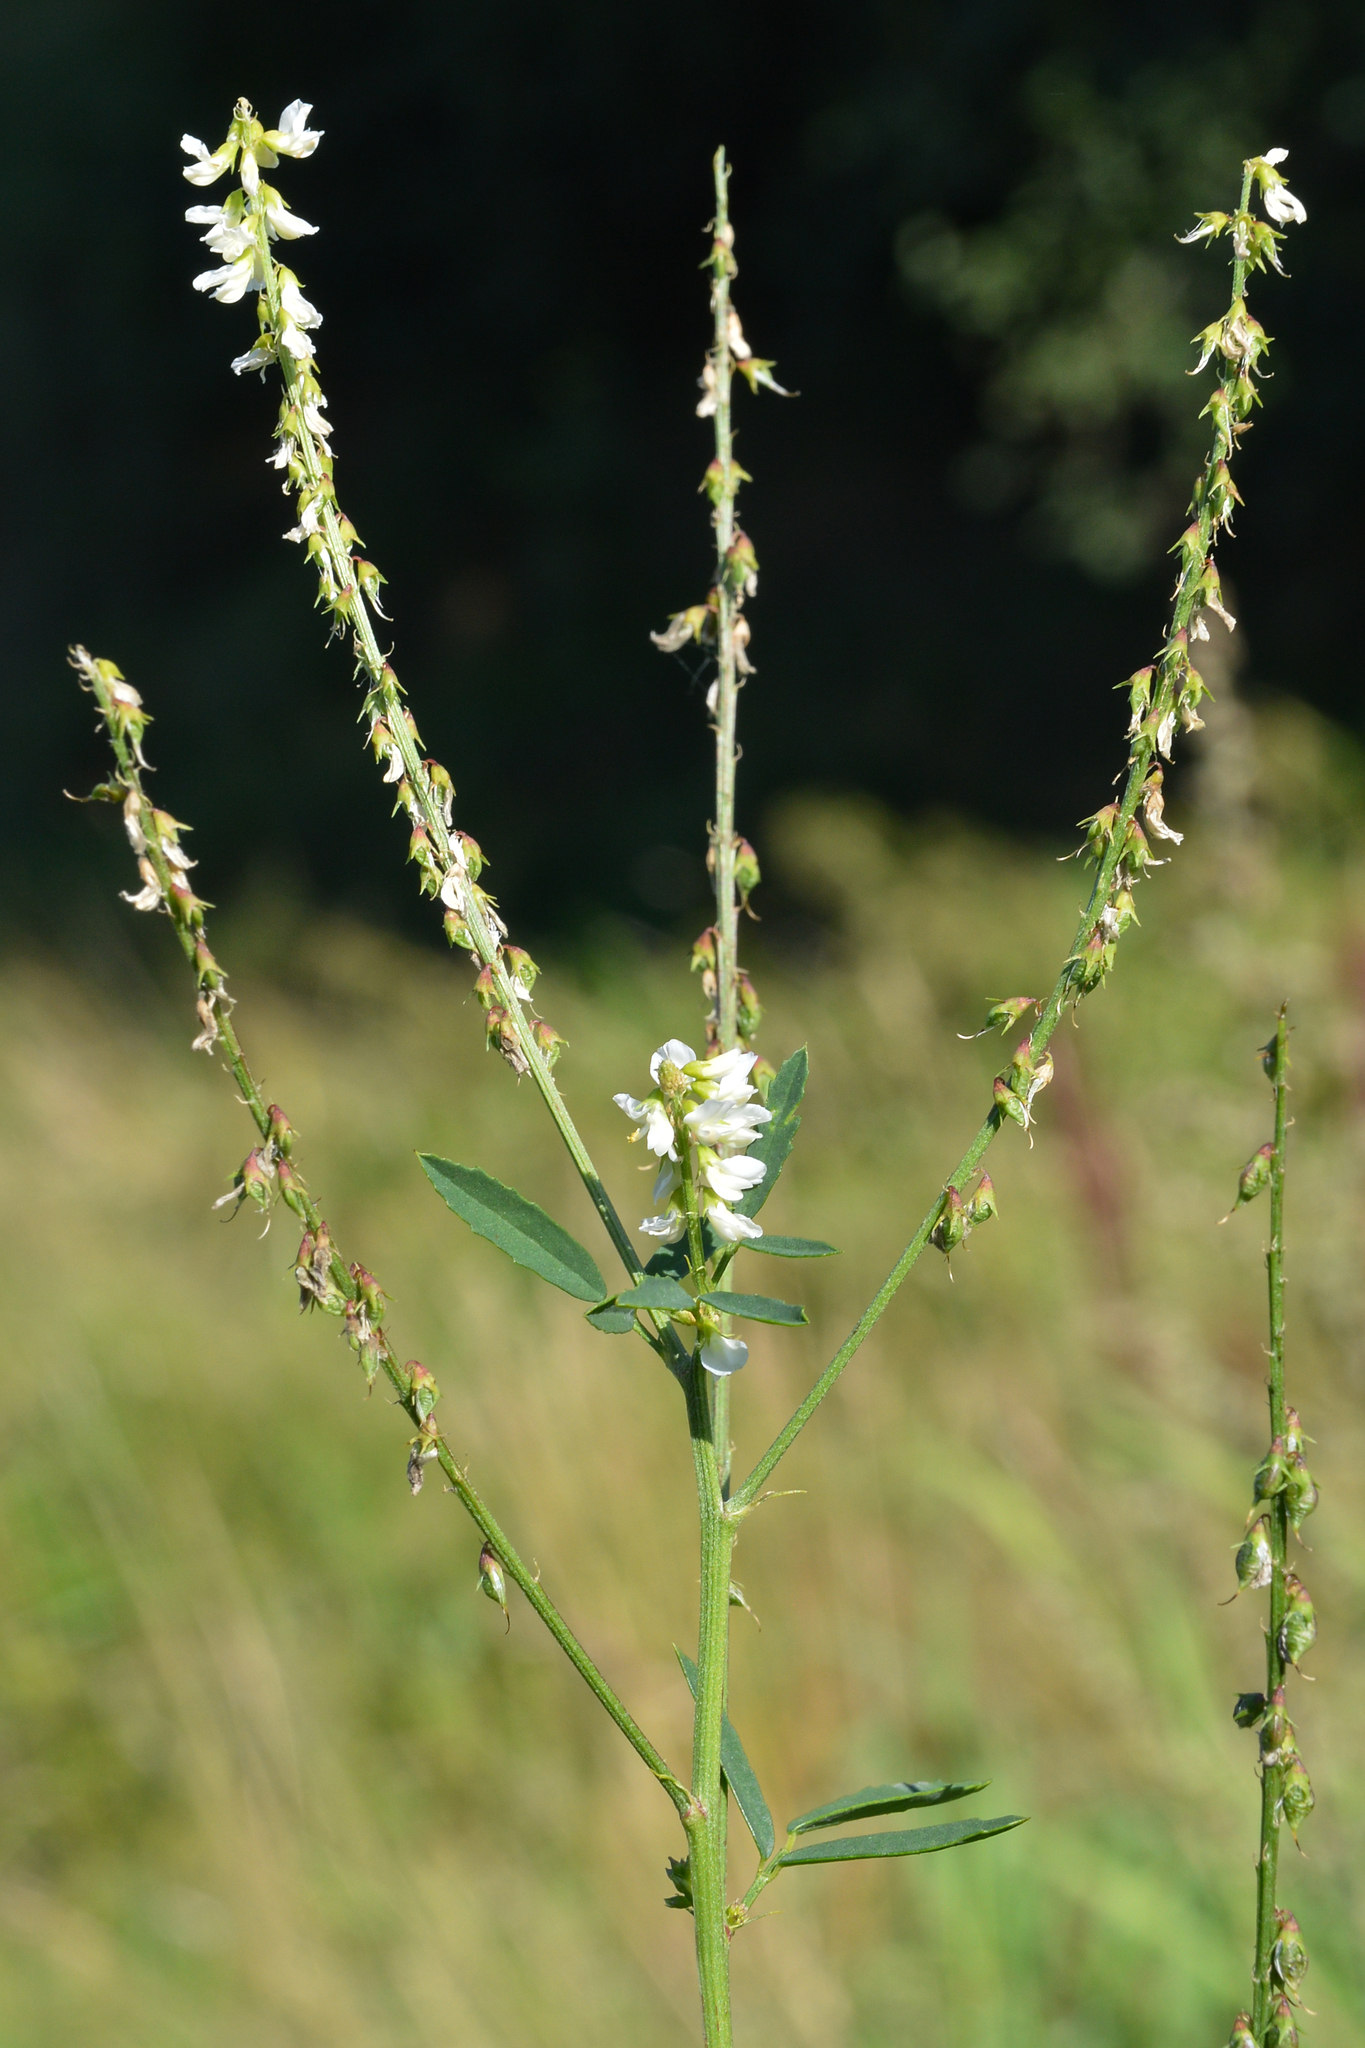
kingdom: Plantae
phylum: Tracheophyta
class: Magnoliopsida
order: Fabales
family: Fabaceae
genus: Melilotus
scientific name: Melilotus albus
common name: White melilot
